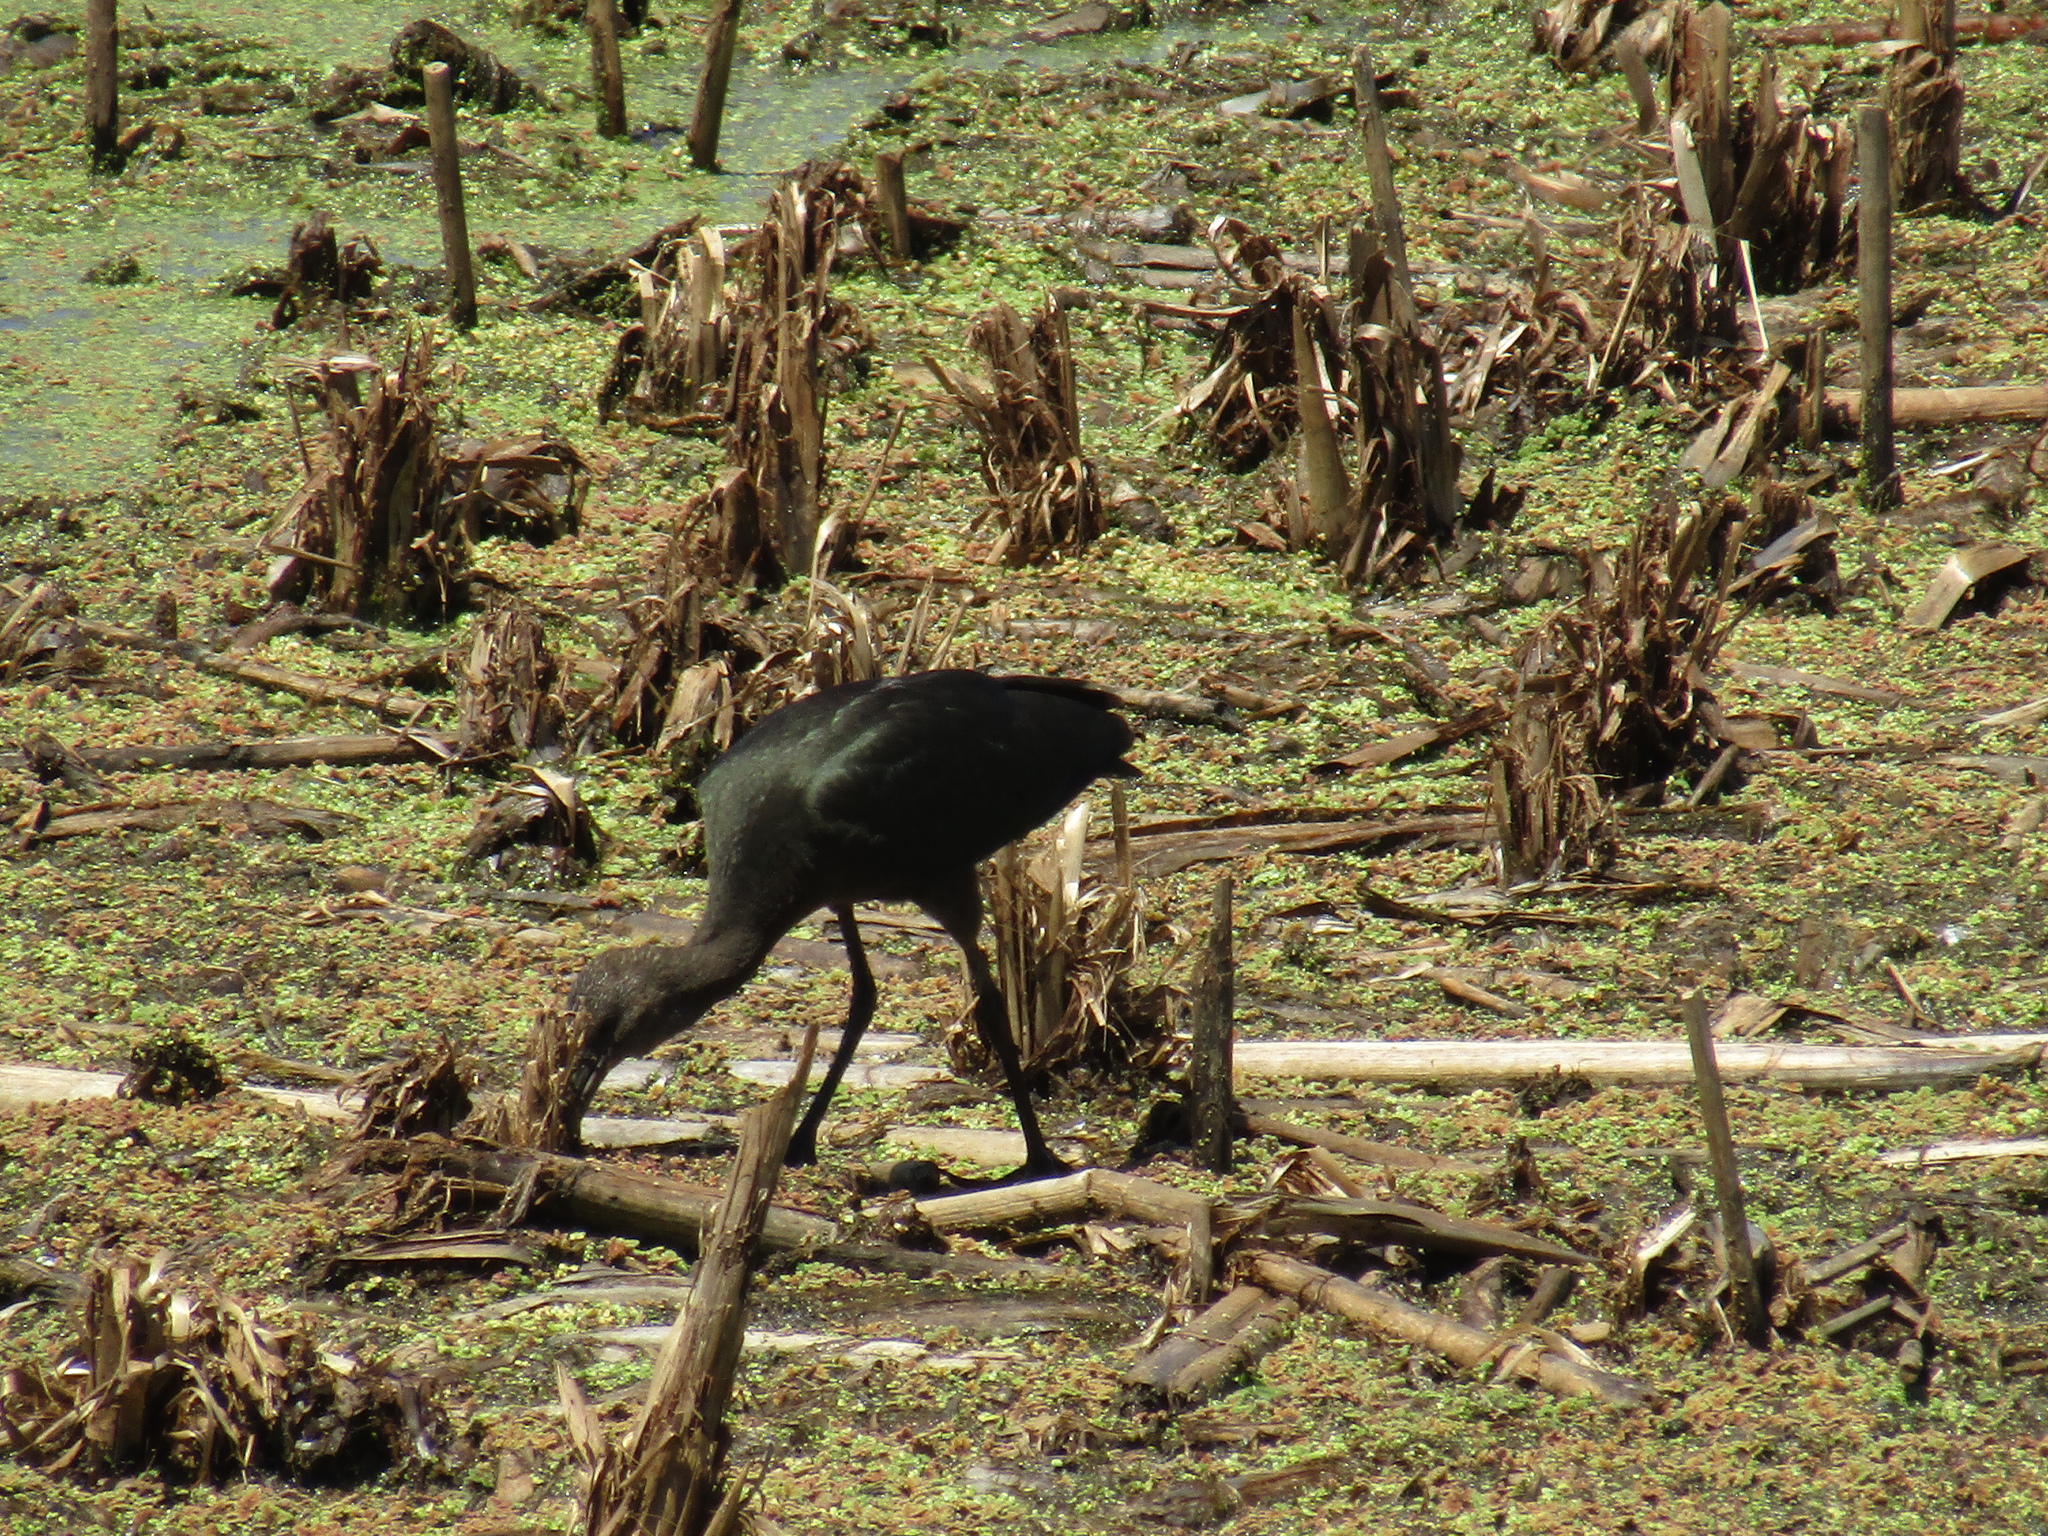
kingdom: Animalia
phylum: Chordata
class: Aves
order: Pelecaniformes
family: Threskiornithidae
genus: Plegadis
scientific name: Plegadis chihi
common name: White-faced ibis
